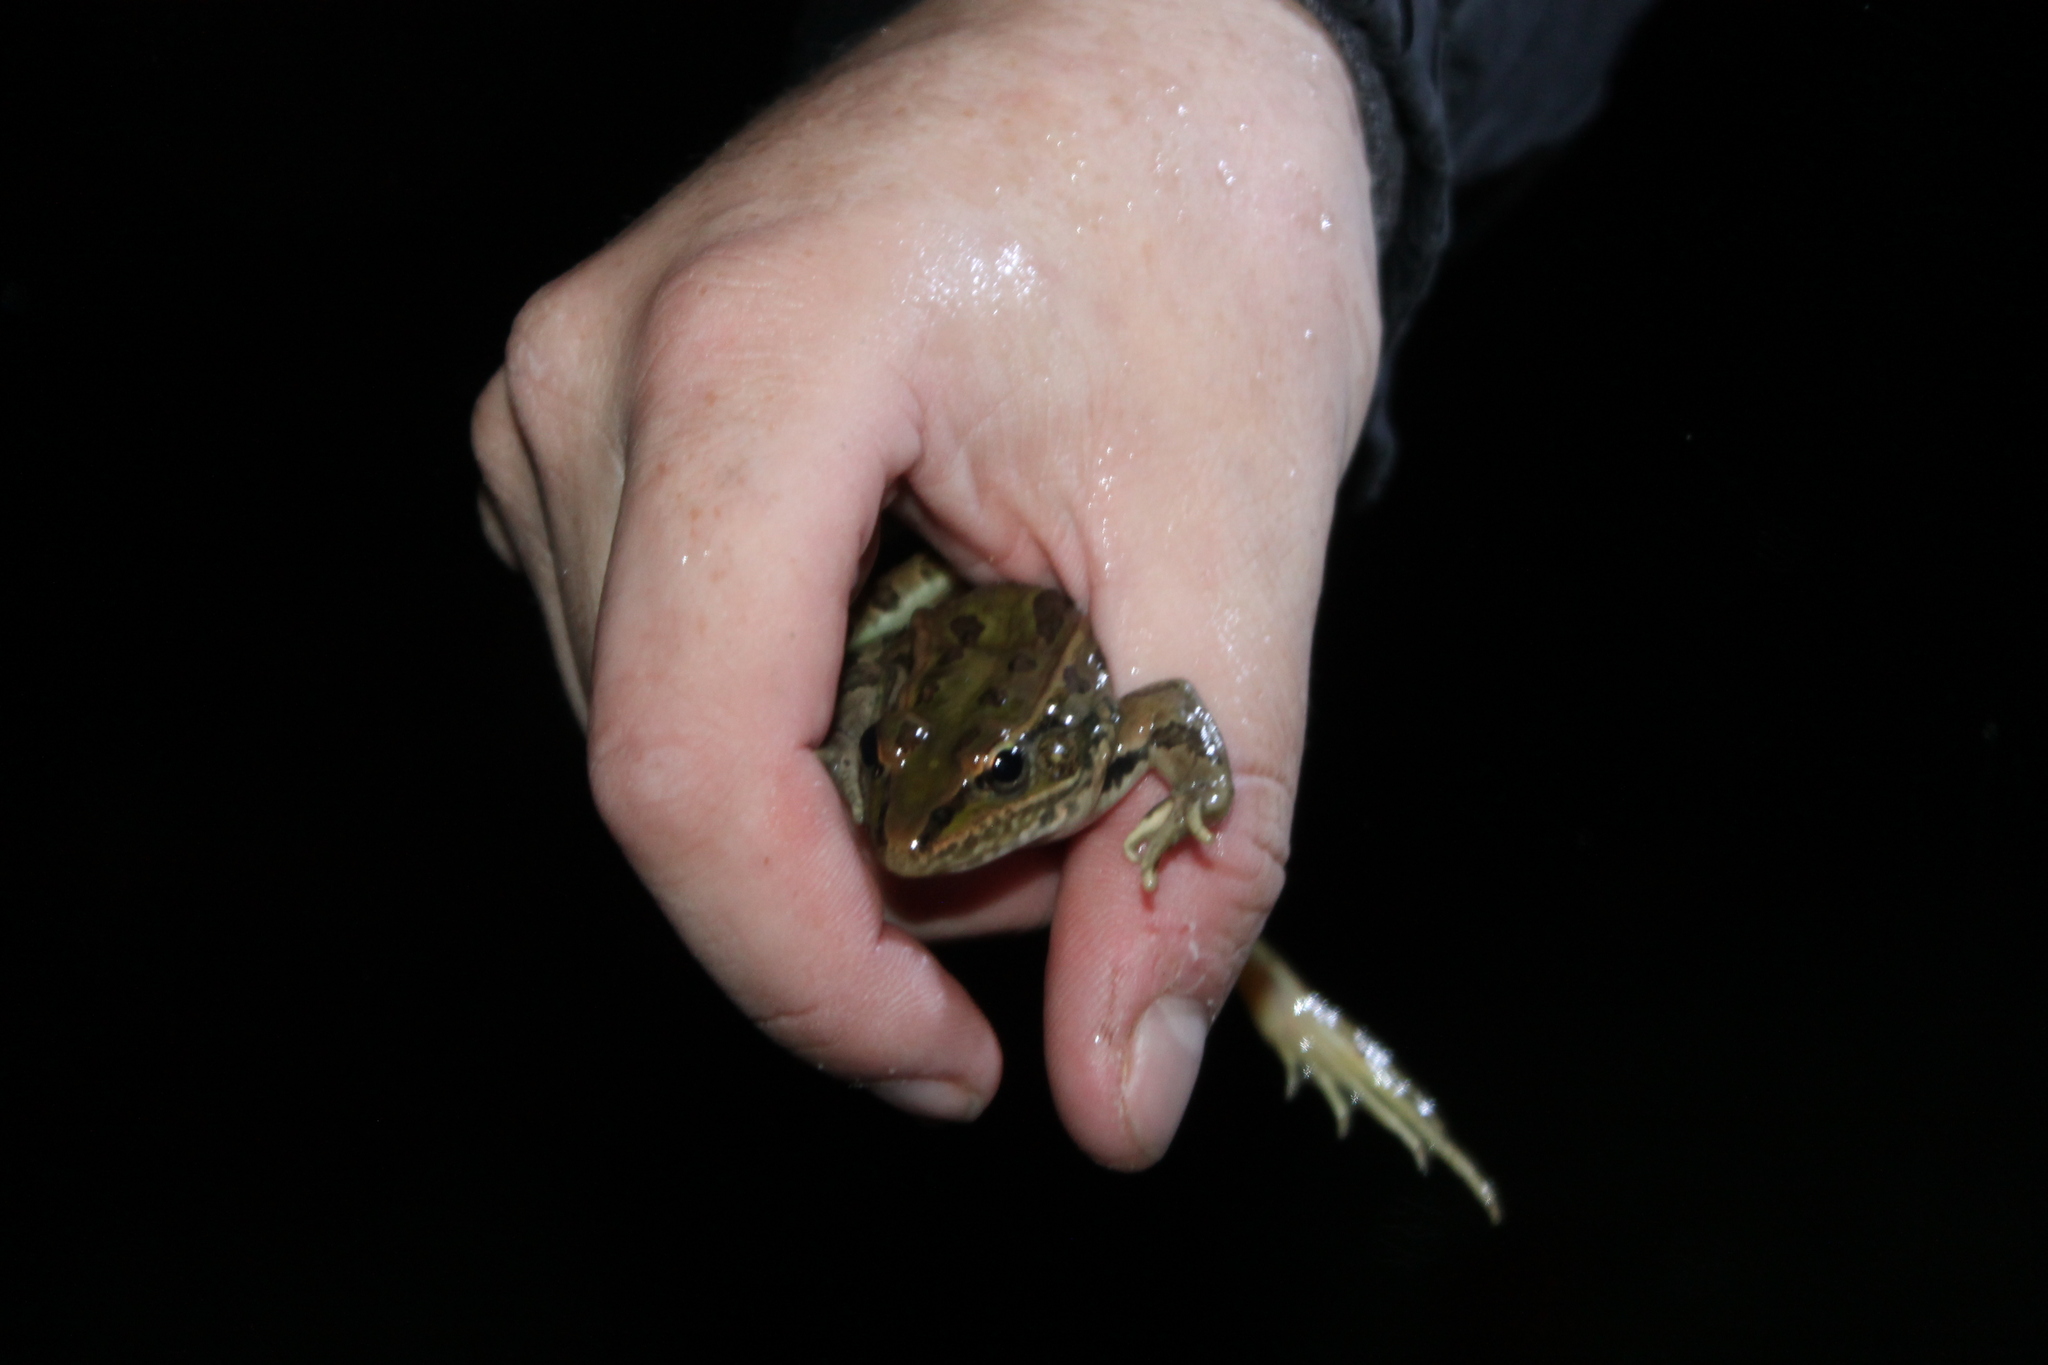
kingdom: Animalia
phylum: Chordata
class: Amphibia
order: Anura
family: Ranidae
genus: Lithobates
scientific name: Lithobates sphenocephalus
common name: Southern leopard frog
